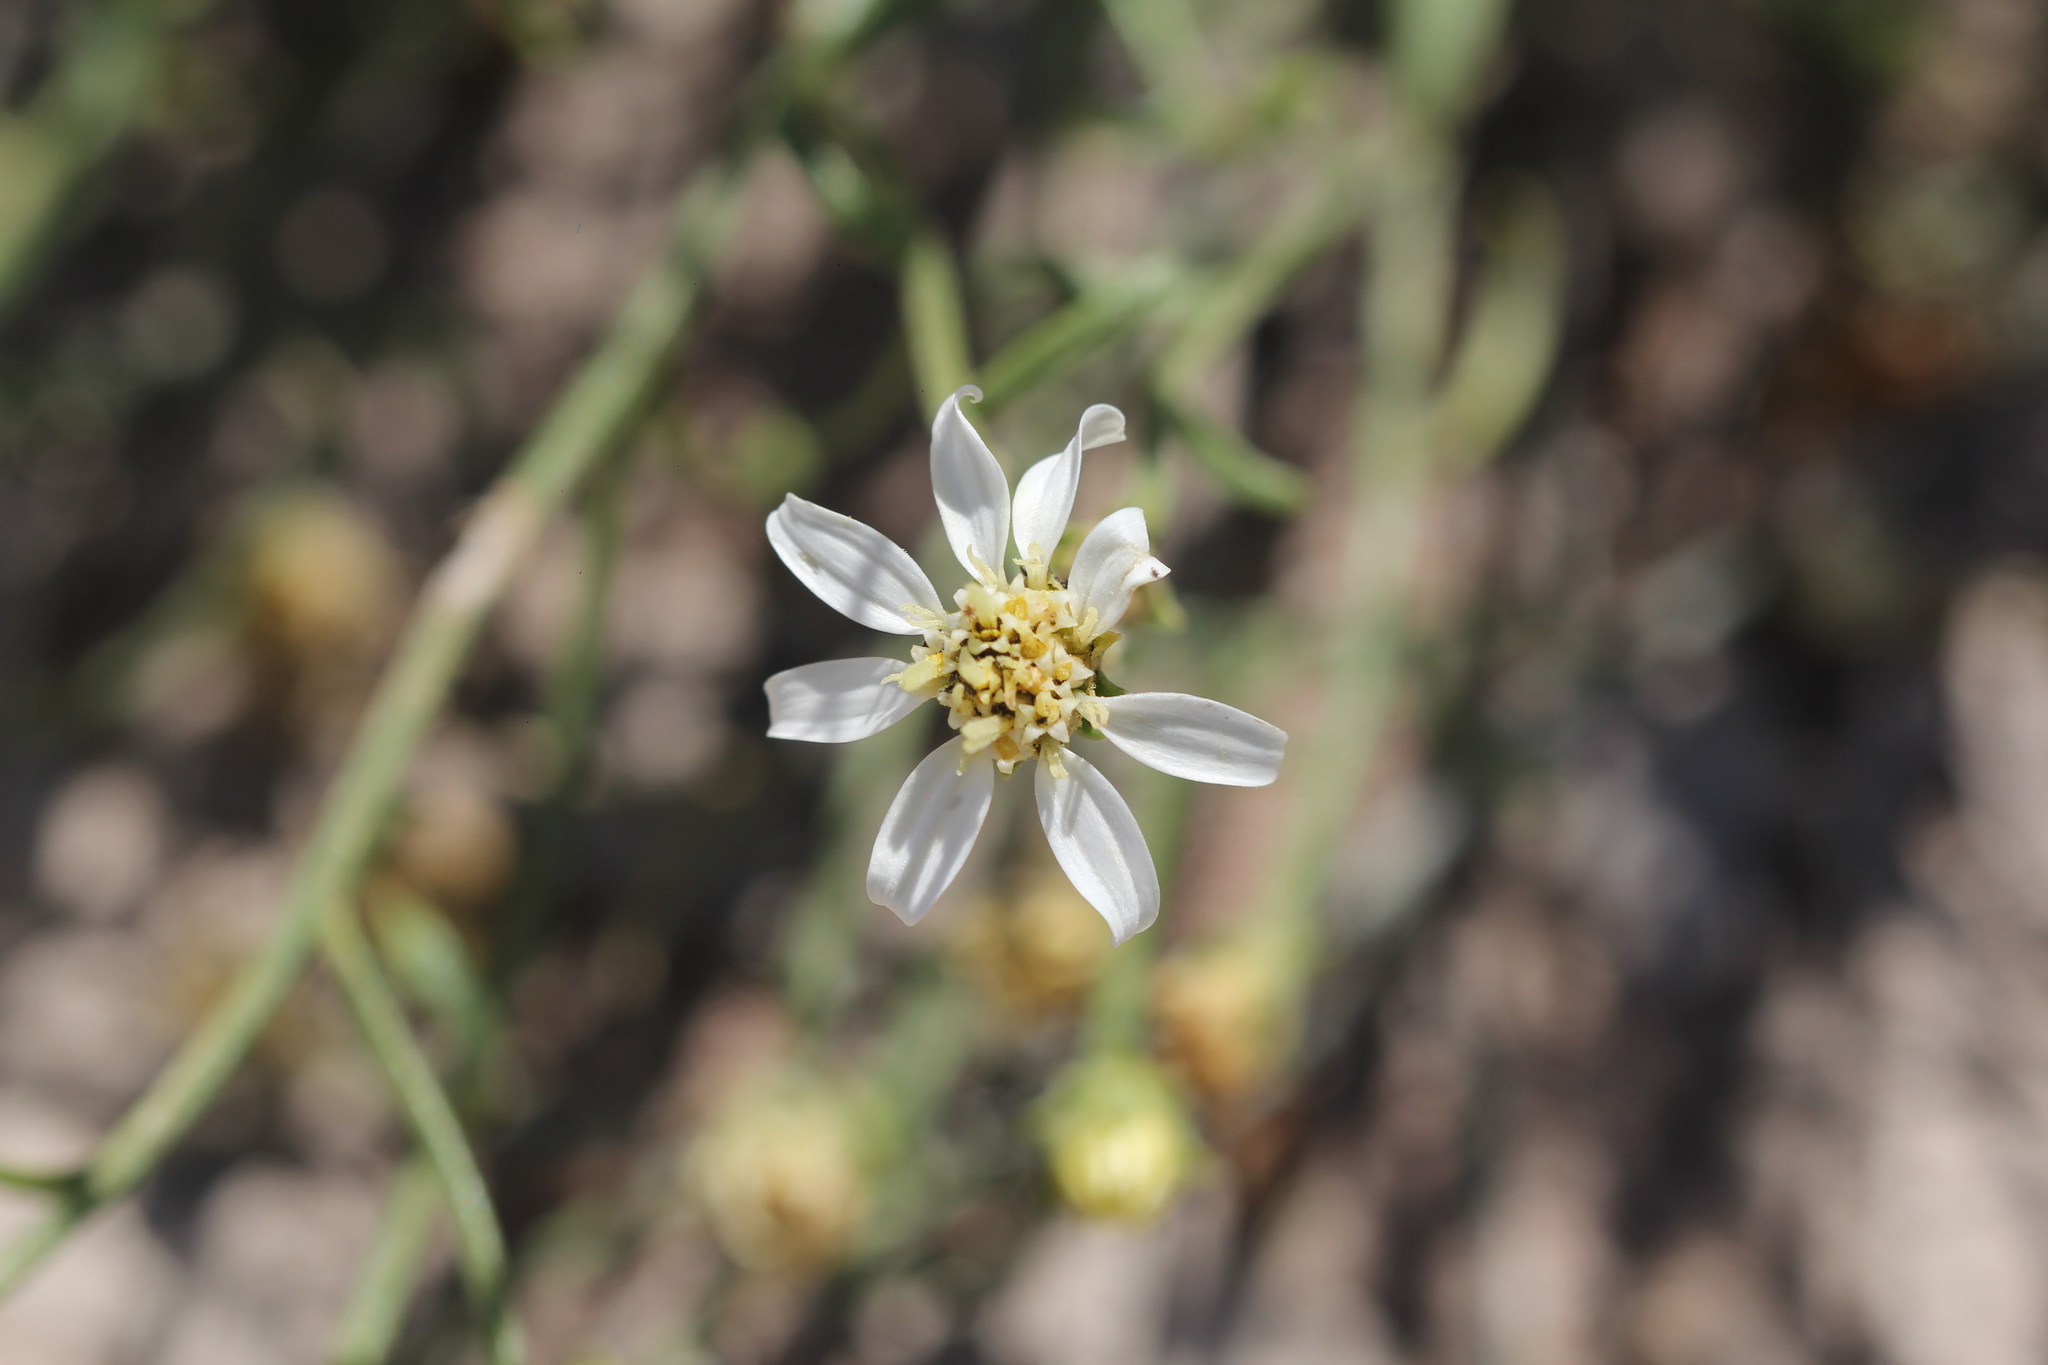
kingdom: Plantae
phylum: Tracheophyta
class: Magnoliopsida
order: Asterales
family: Asteraceae
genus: Gutierrezia
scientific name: Gutierrezia solbrigii
